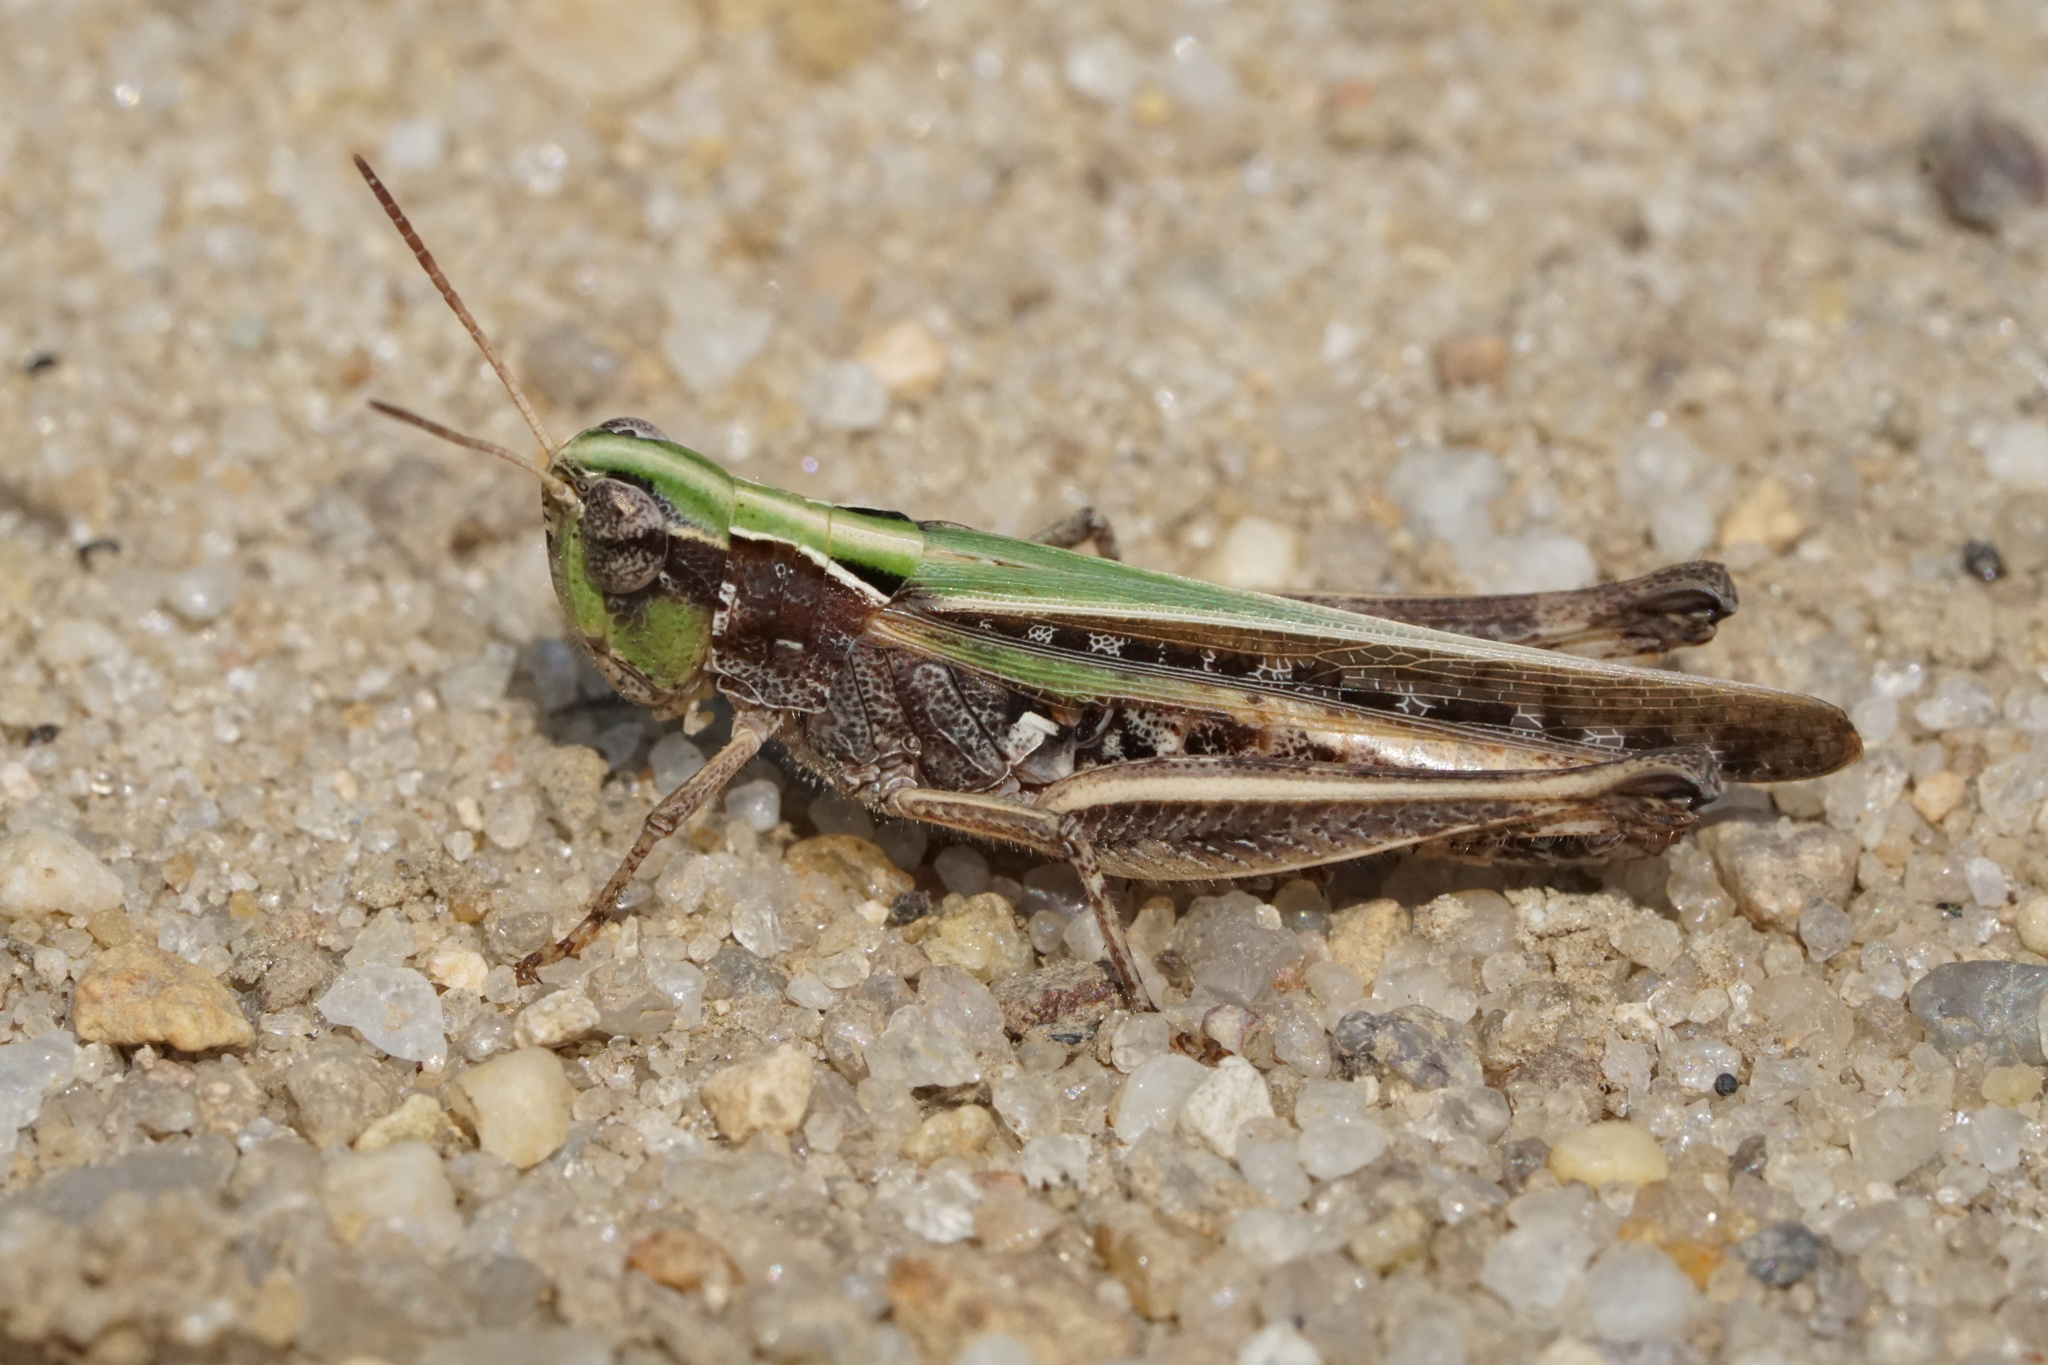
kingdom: Animalia
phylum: Arthropoda
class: Insecta
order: Orthoptera
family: Acrididae
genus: Orphulella
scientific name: Orphulella pelidna
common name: Spotted-wing grasshopper
